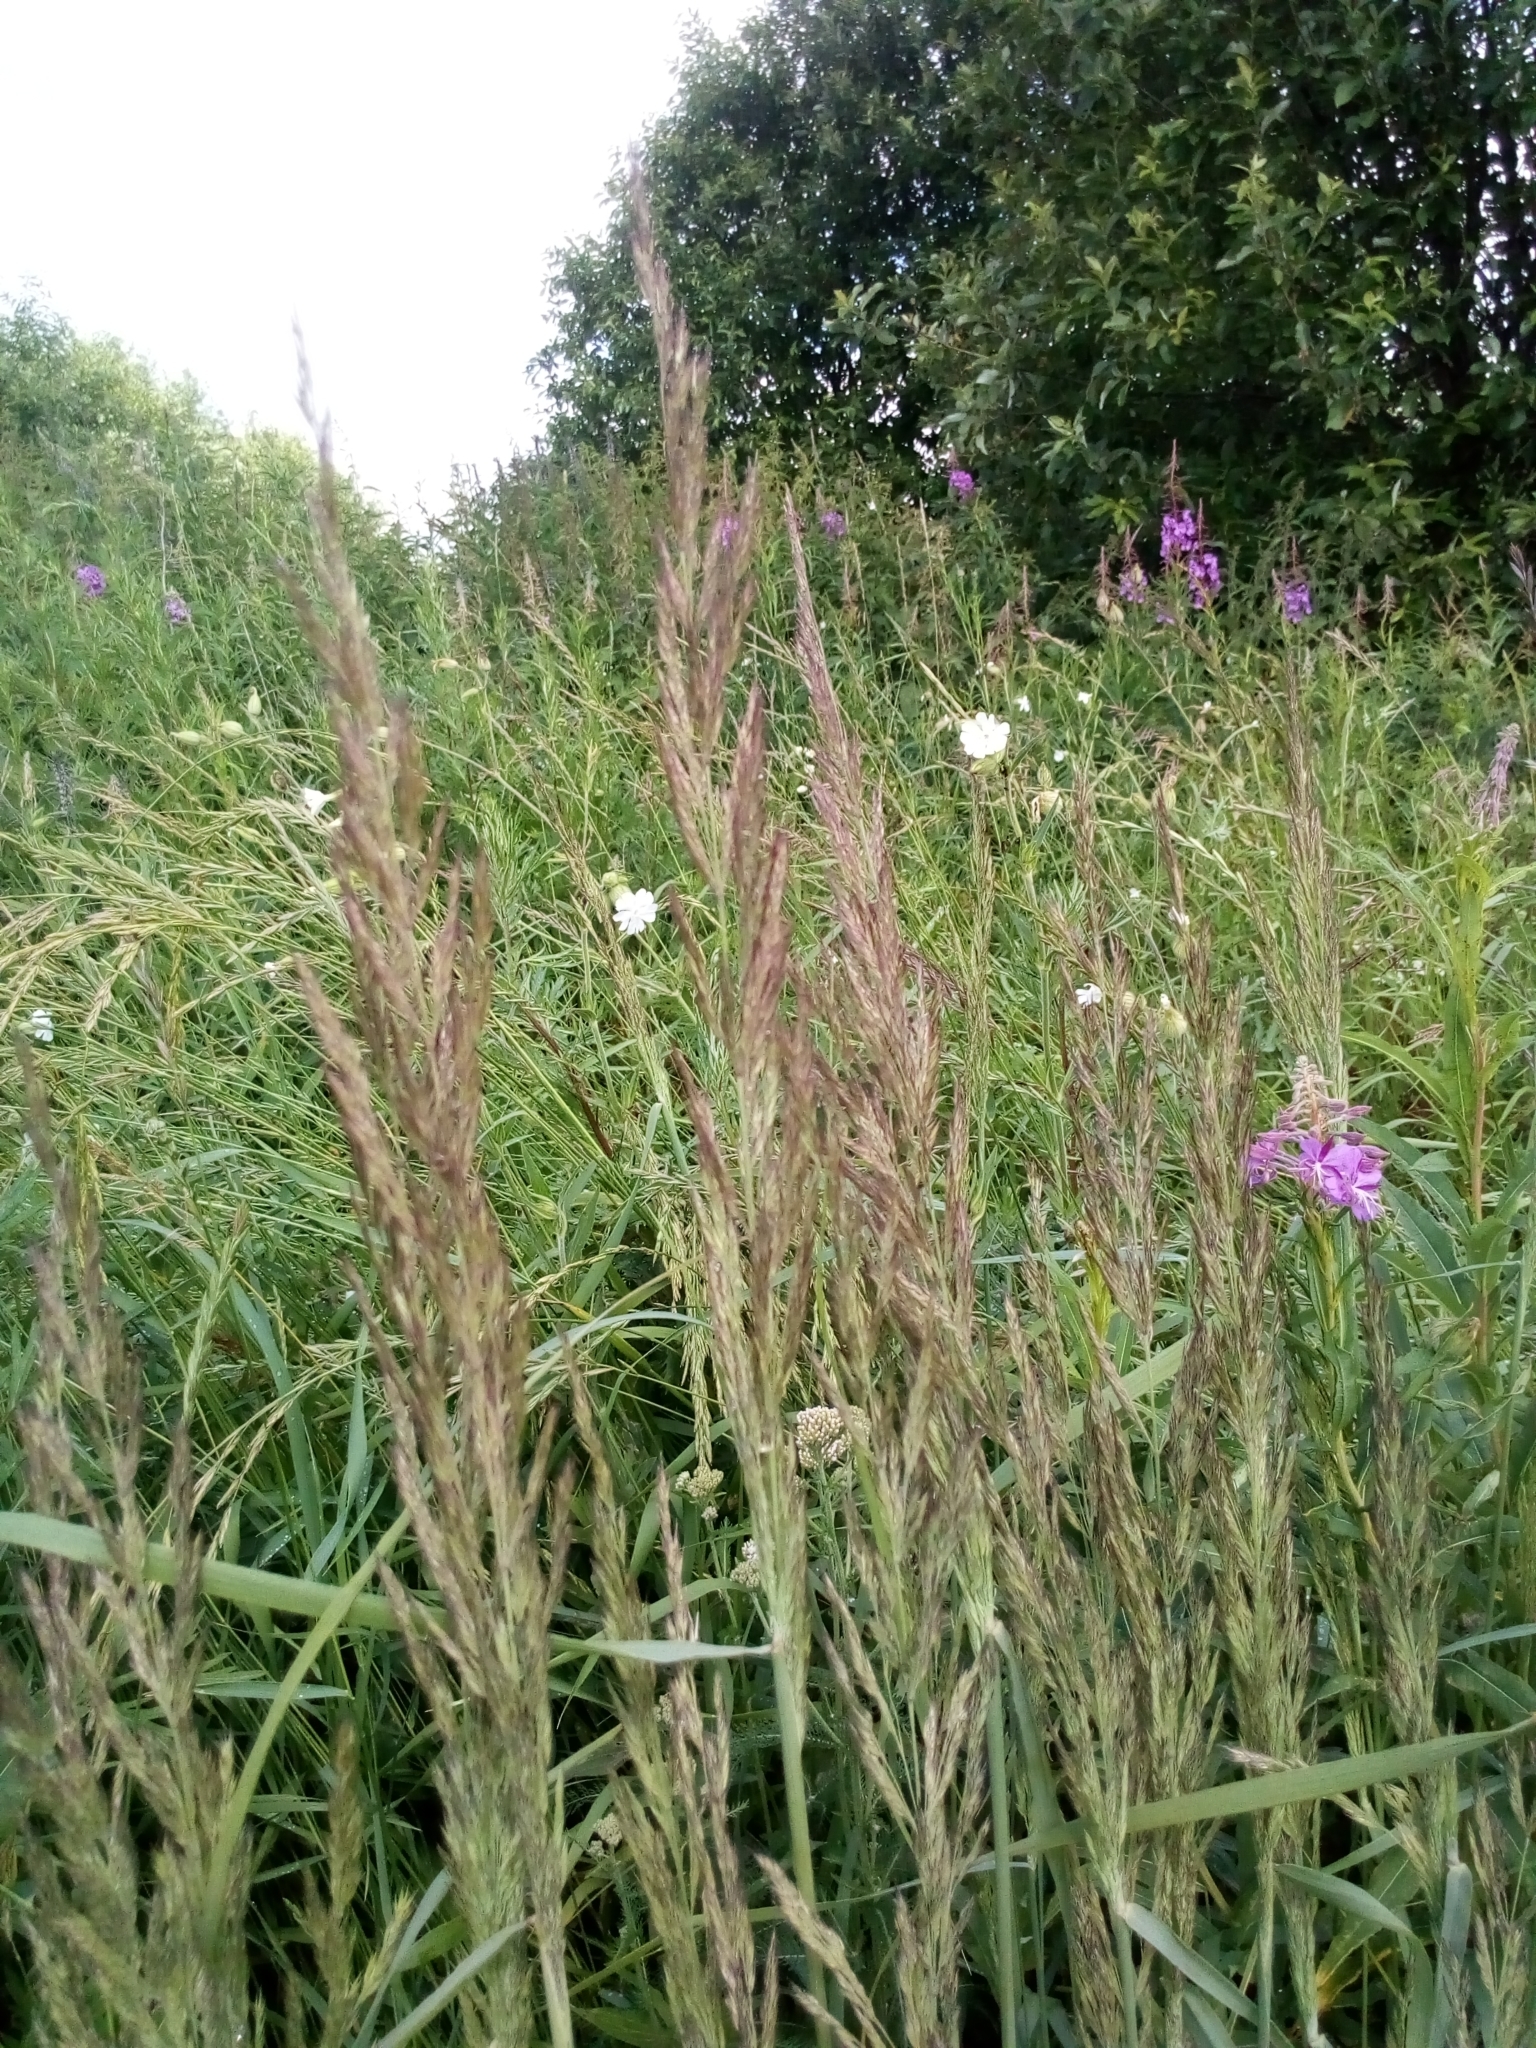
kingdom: Plantae
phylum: Tracheophyta
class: Liliopsida
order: Poales
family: Poaceae
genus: Calamagrostis
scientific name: Calamagrostis epigejos
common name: Wood small-reed
